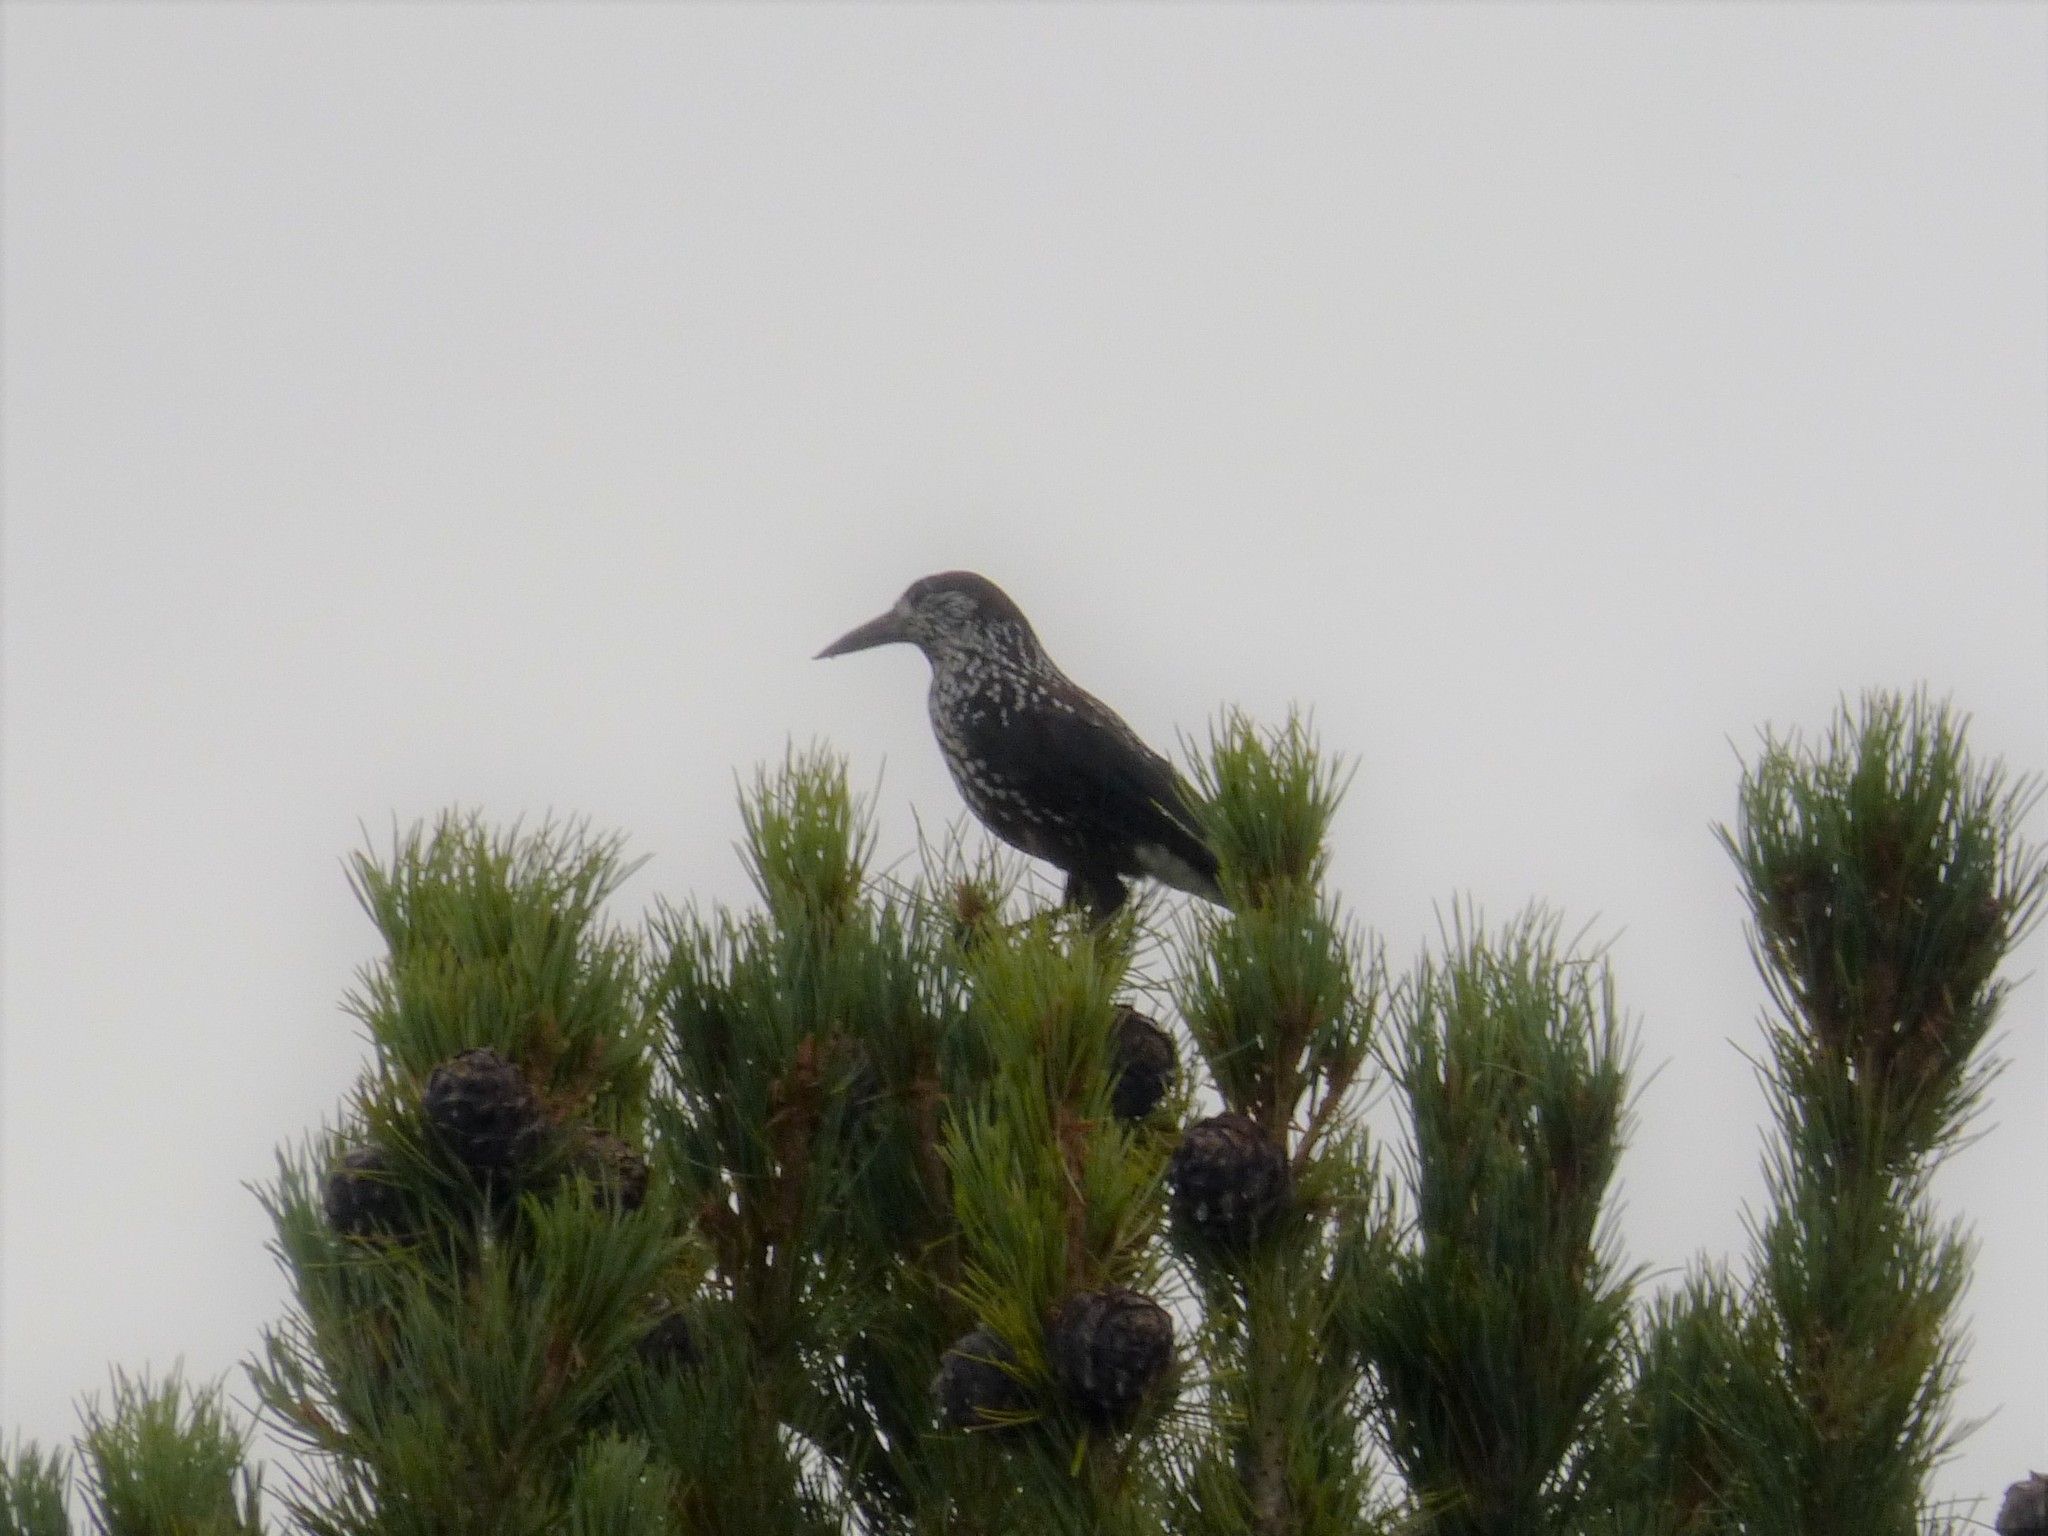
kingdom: Animalia
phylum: Chordata
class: Aves
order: Passeriformes
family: Corvidae
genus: Nucifraga
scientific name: Nucifraga caryocatactes
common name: Spotted nutcracker
